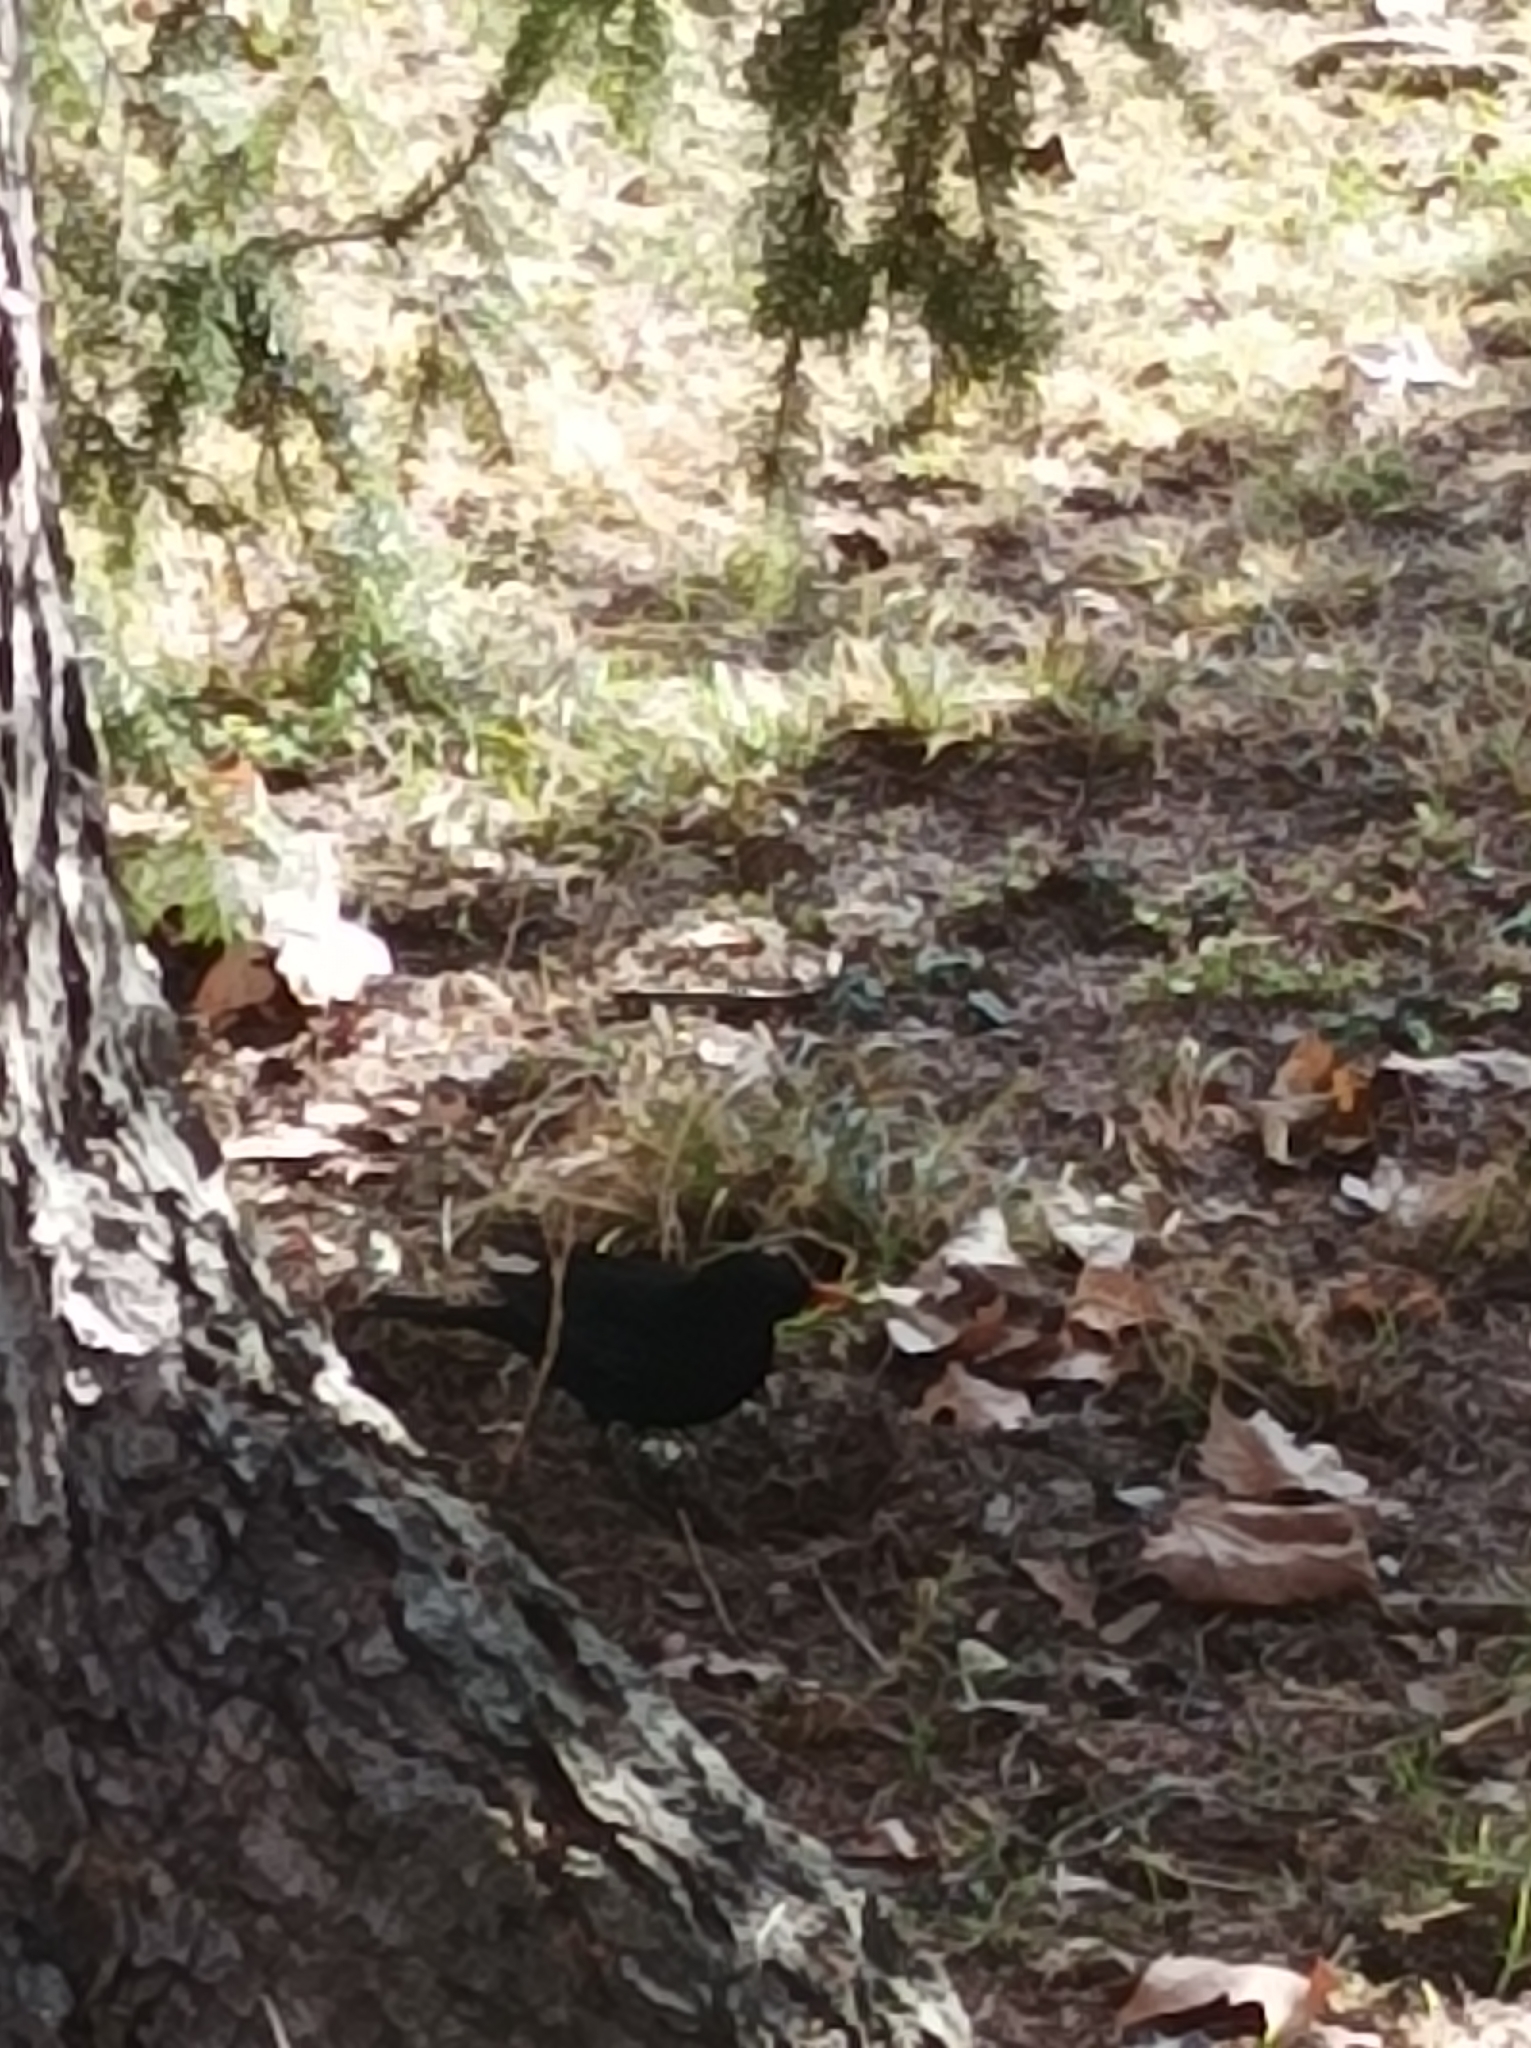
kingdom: Animalia
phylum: Chordata
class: Aves
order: Passeriformes
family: Turdidae
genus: Turdus
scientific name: Turdus merula
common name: Common blackbird
